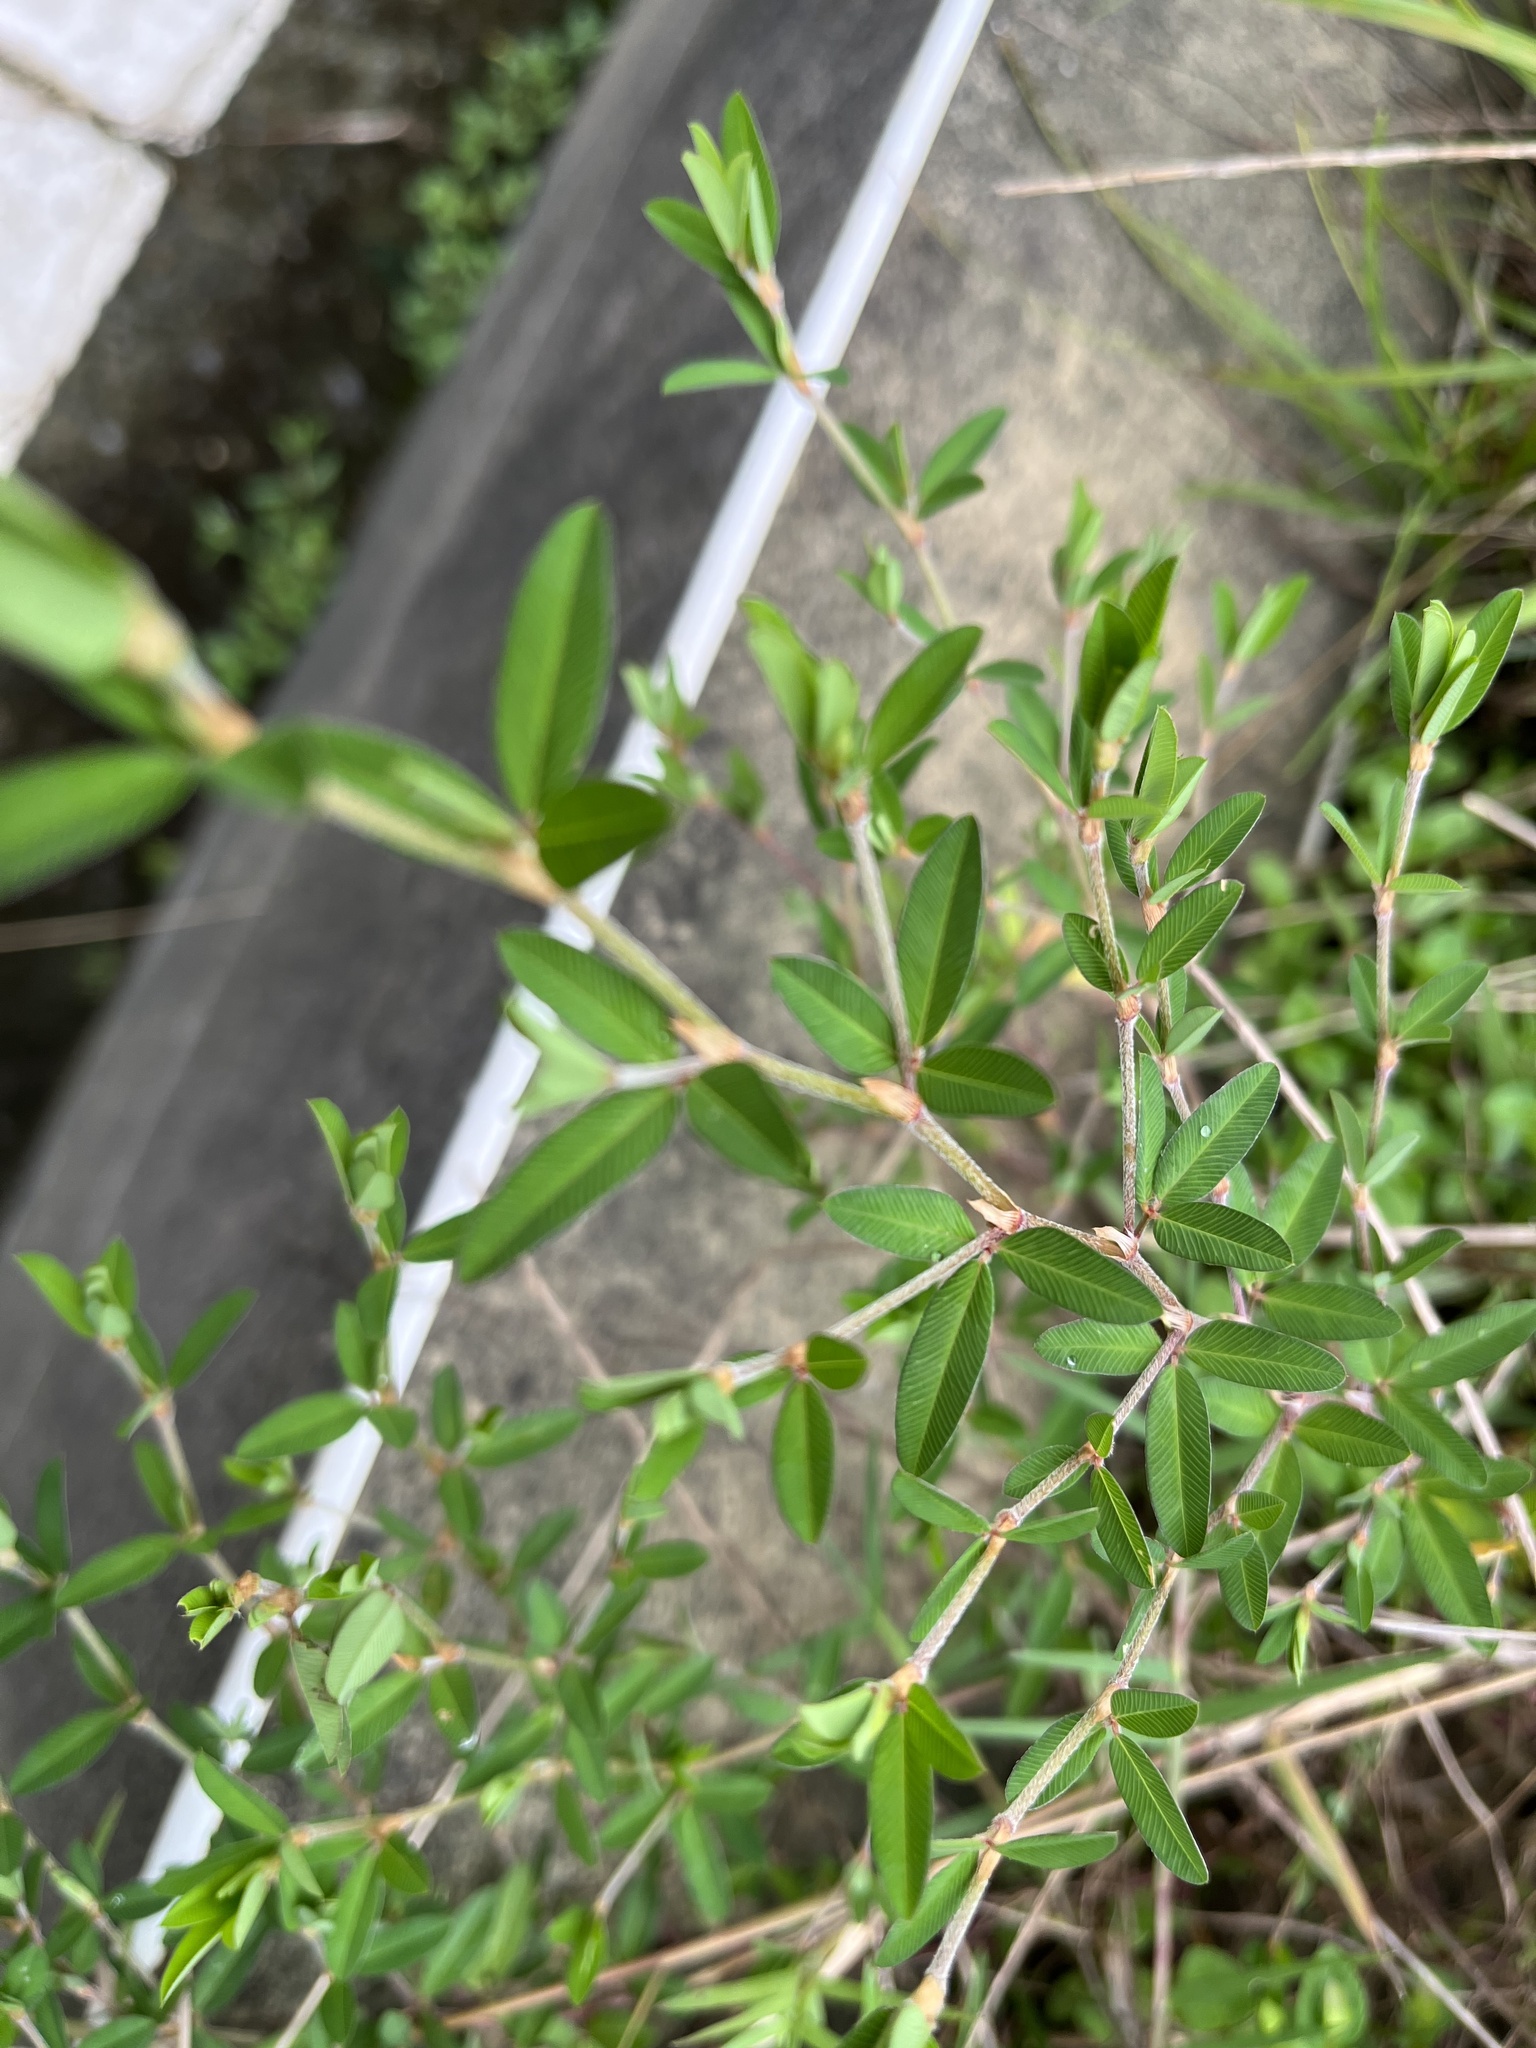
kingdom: Plantae
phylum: Tracheophyta
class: Magnoliopsida
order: Fabales
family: Fabaceae
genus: Kummerowia
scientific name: Kummerowia striata
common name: Japanese clover
